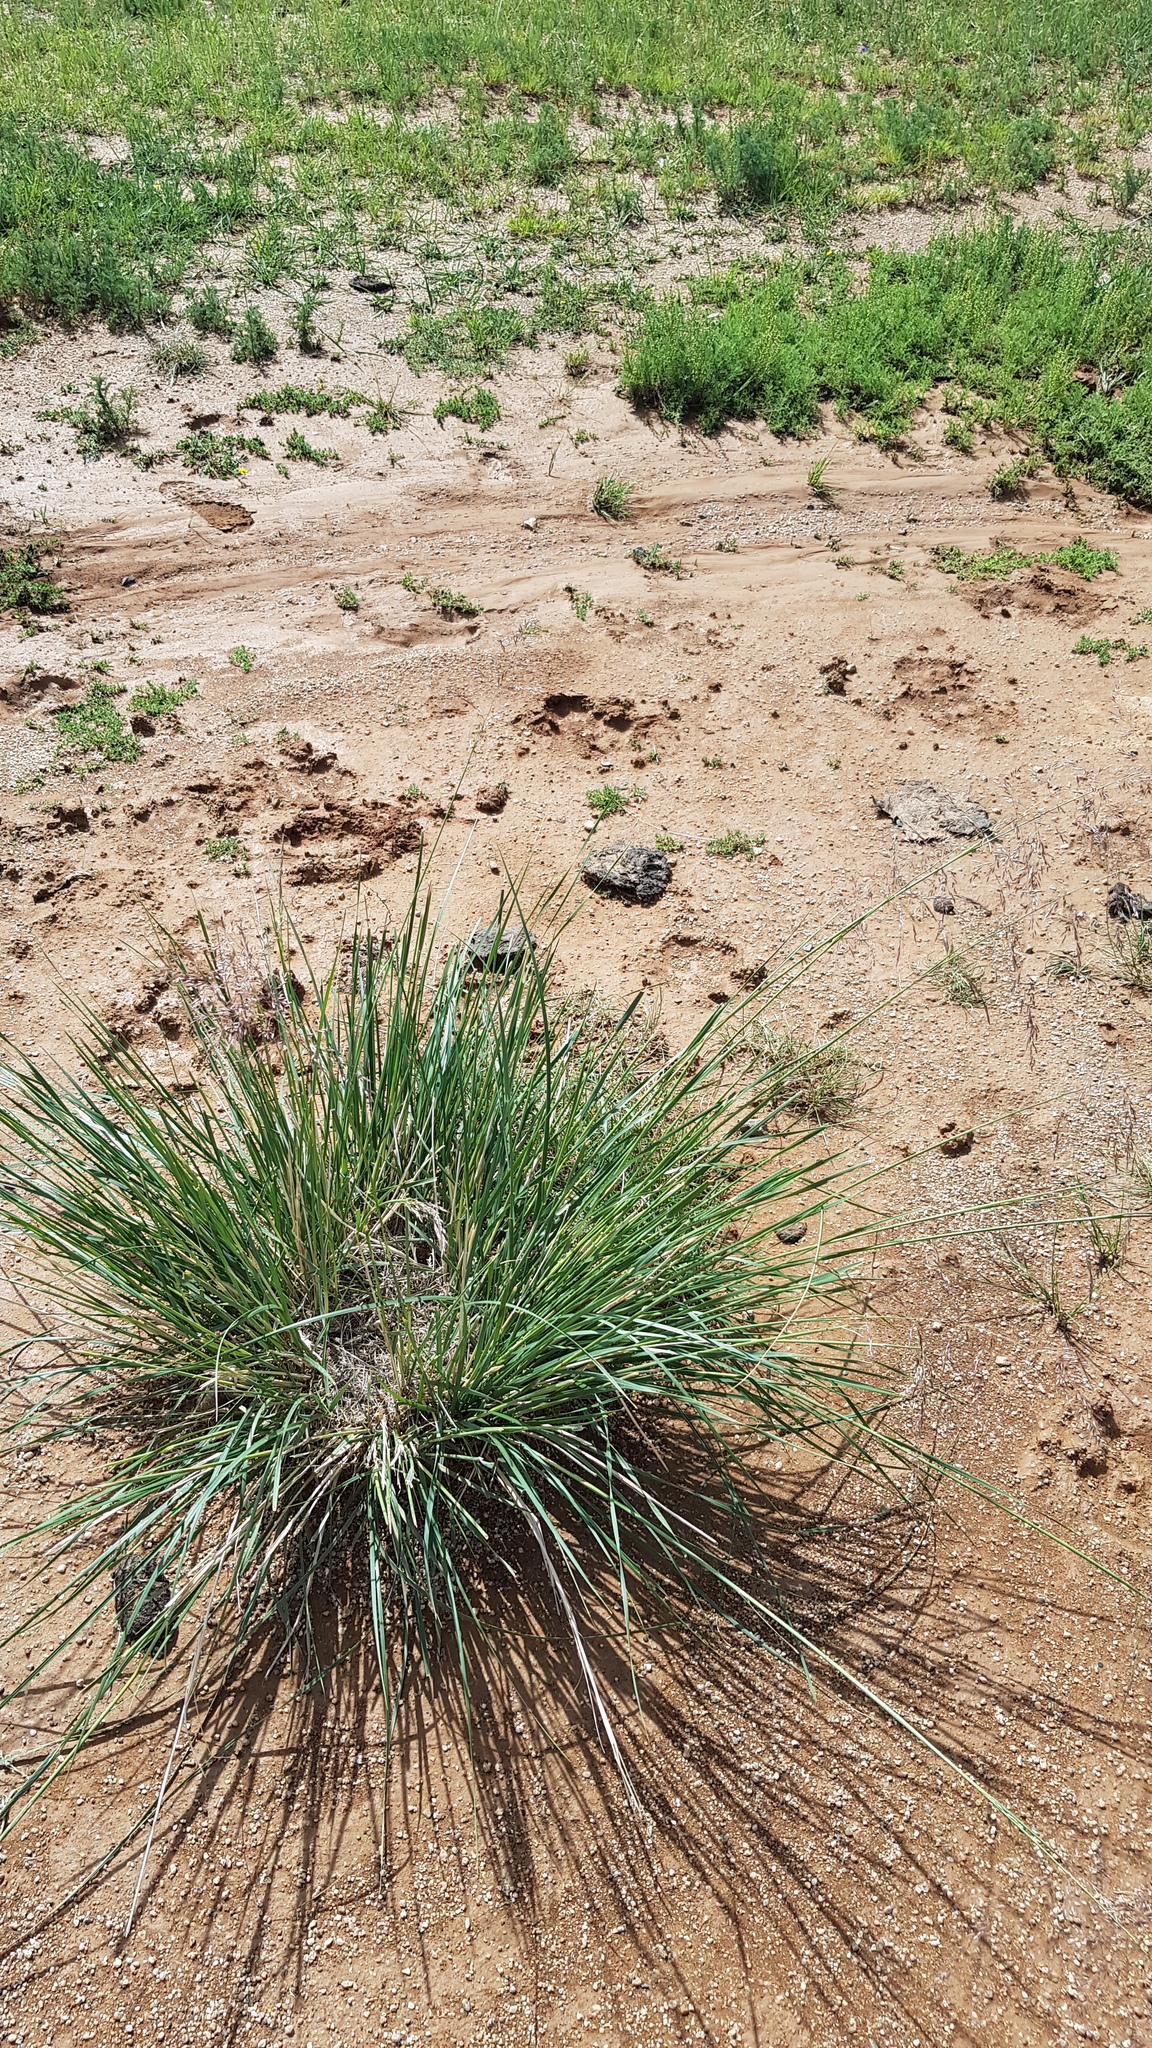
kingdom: Plantae
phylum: Tracheophyta
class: Liliopsida
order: Poales
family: Poaceae
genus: Neotrinia
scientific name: Neotrinia splendens
